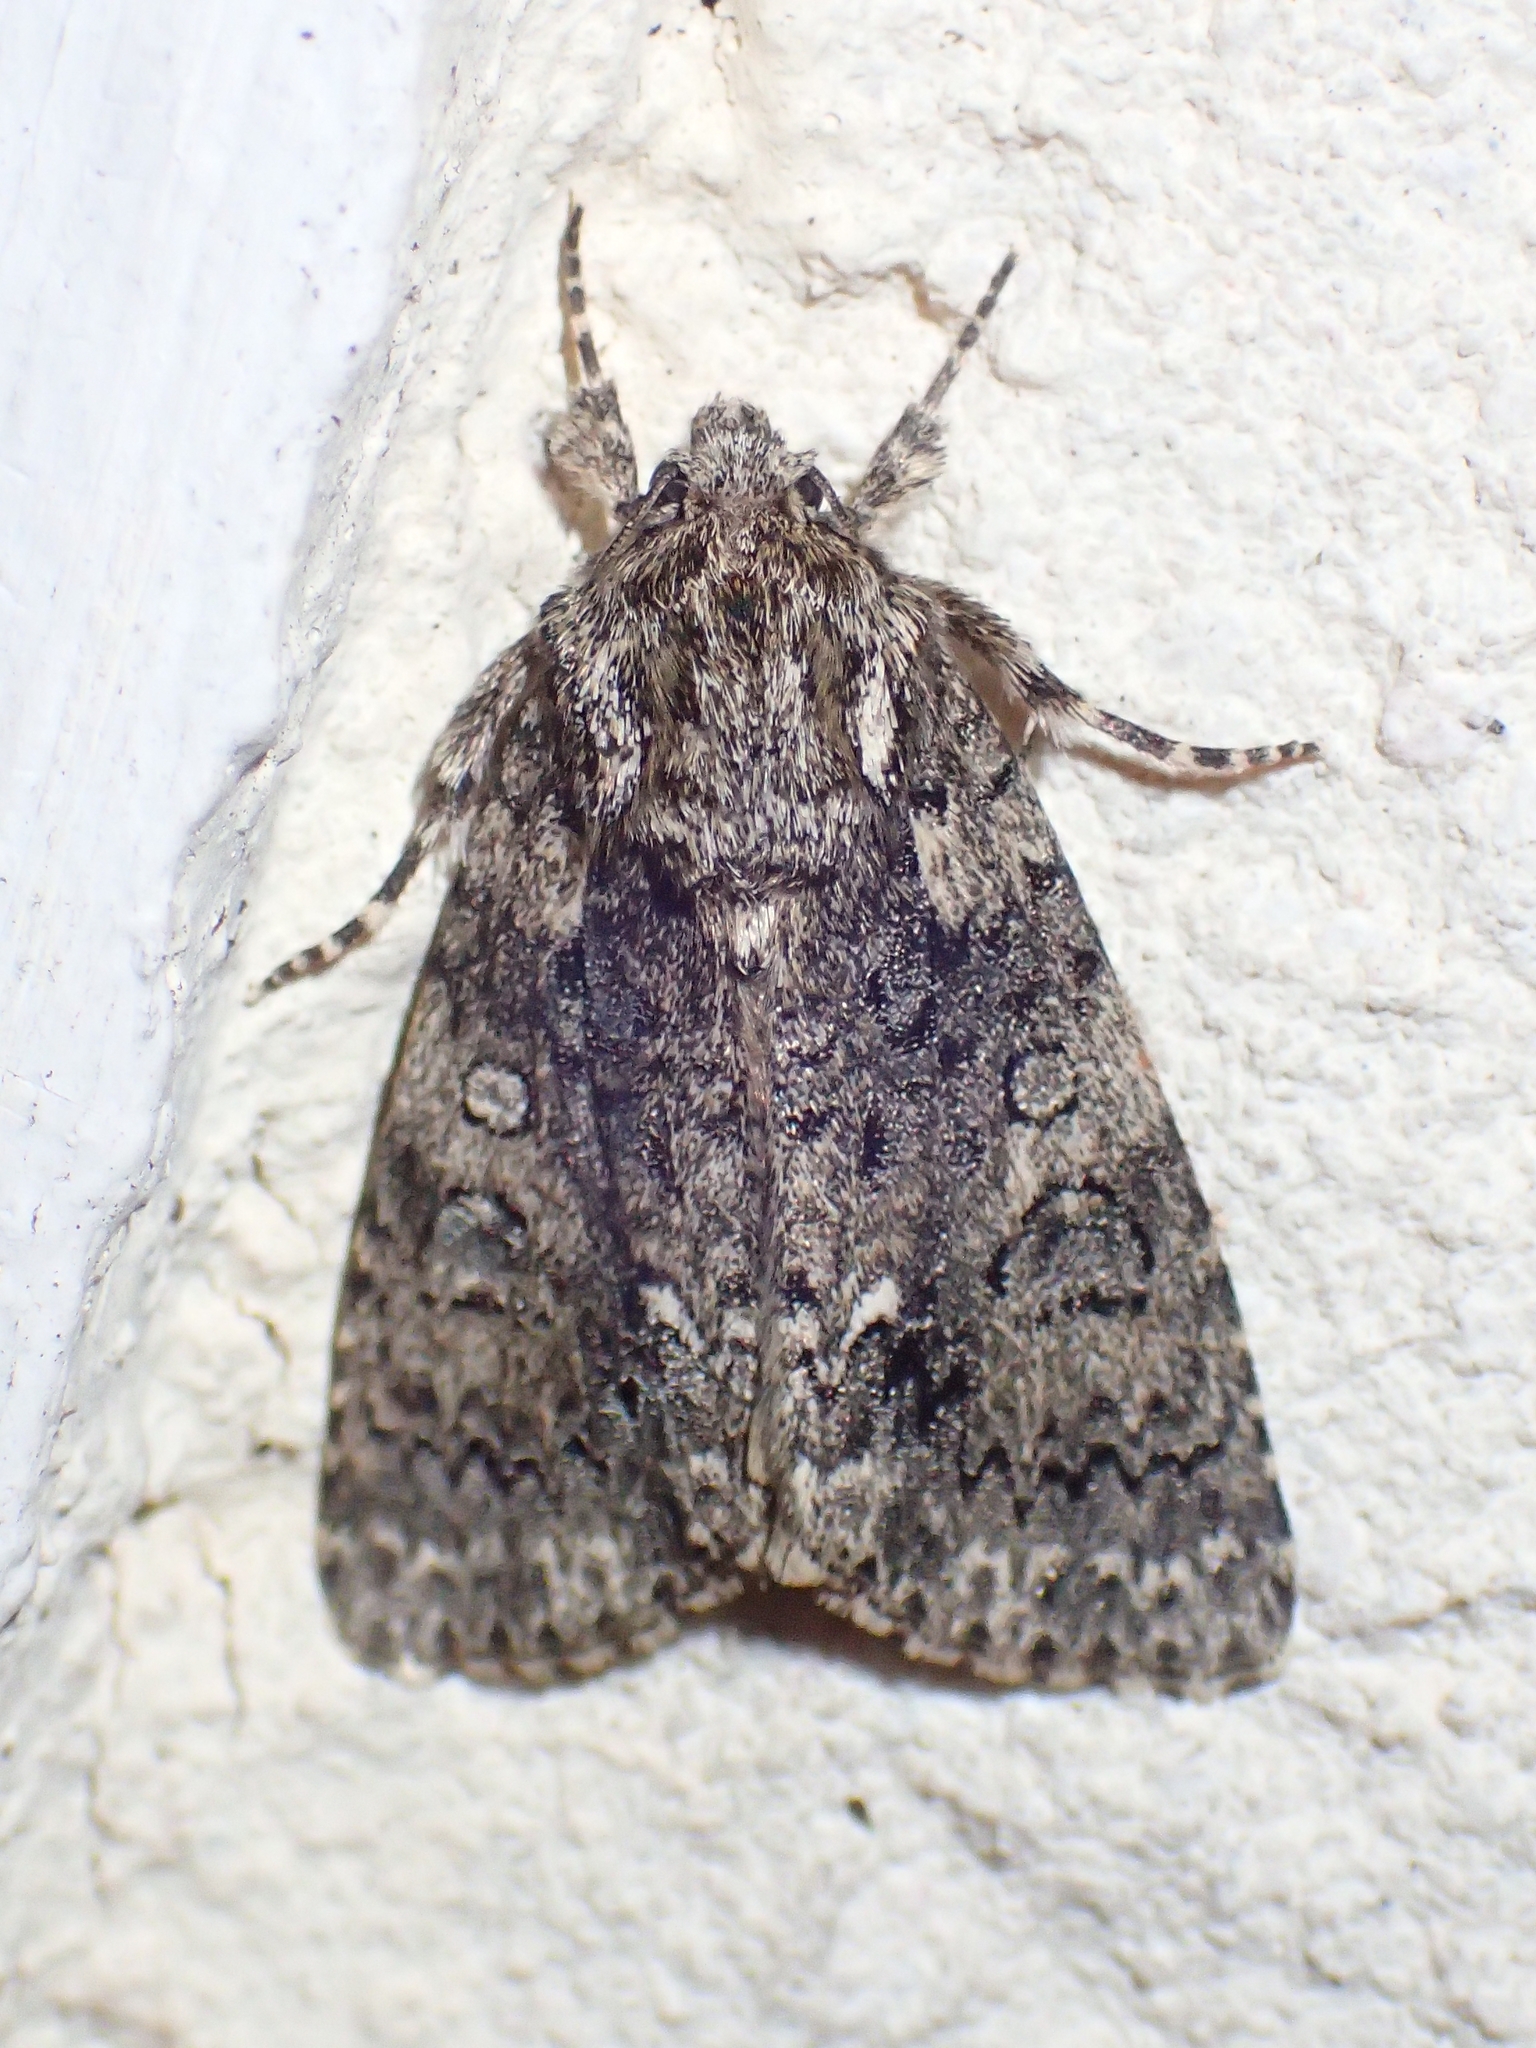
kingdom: Animalia
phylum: Arthropoda
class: Insecta
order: Lepidoptera
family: Noctuidae
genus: Acronicta
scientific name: Acronicta rumicis
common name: Knot grass
